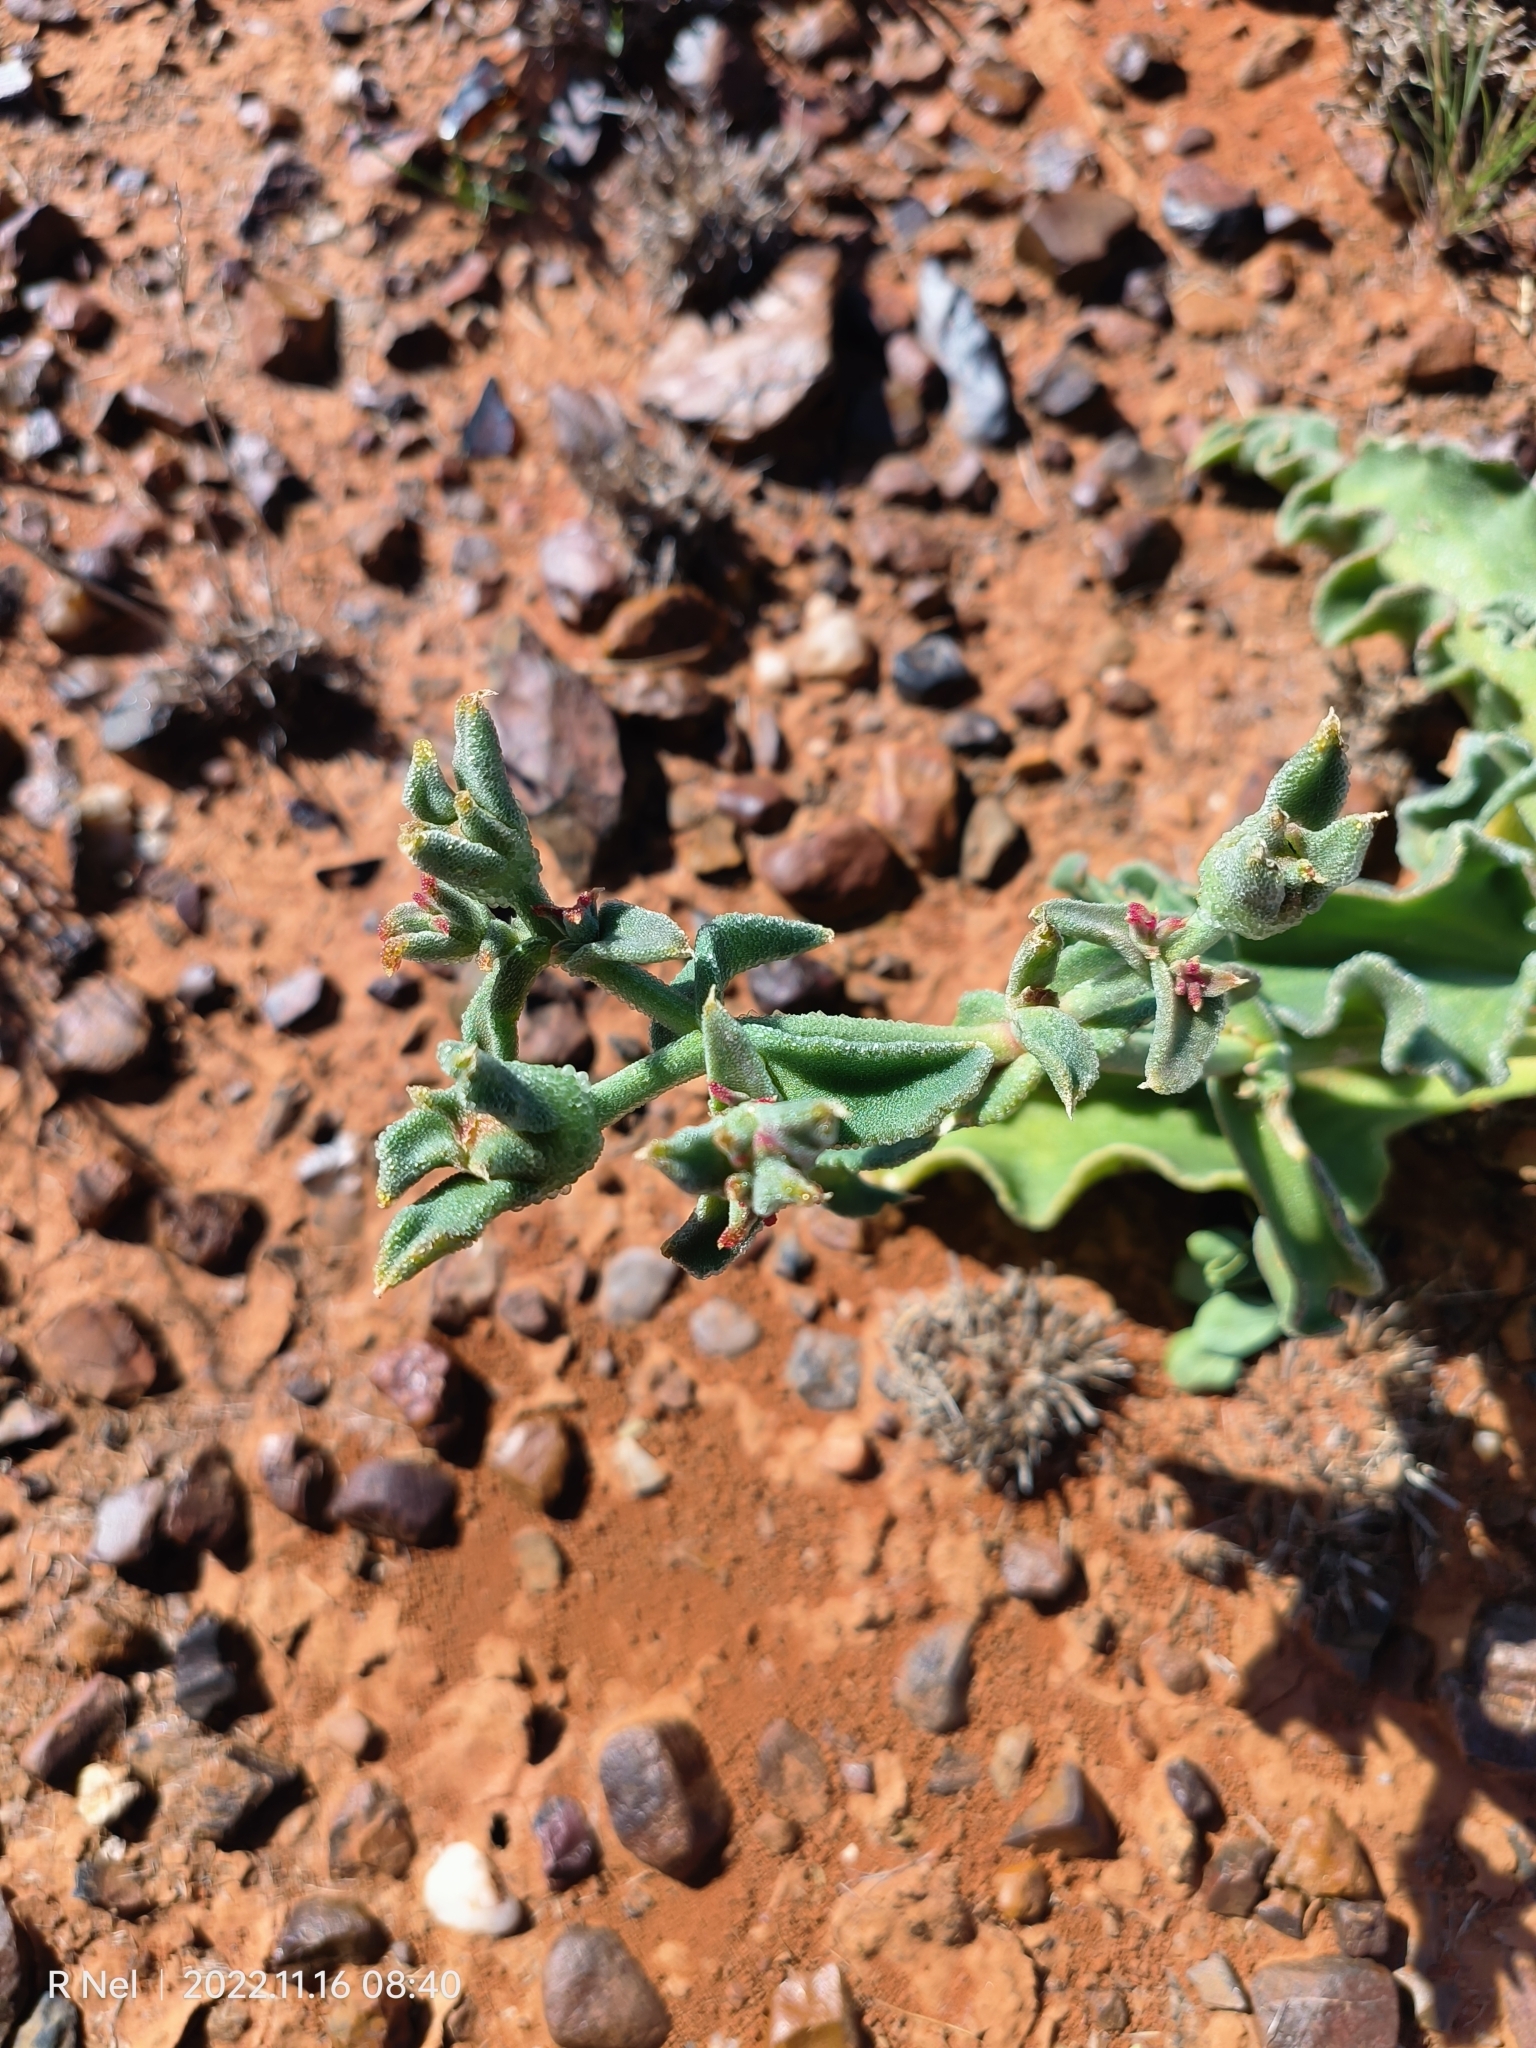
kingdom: Plantae
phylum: Tracheophyta
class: Magnoliopsida
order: Caryophyllales
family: Aizoaceae
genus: Mesembryanthemum
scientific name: Mesembryanthemum crystallinum
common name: Common iceplant
